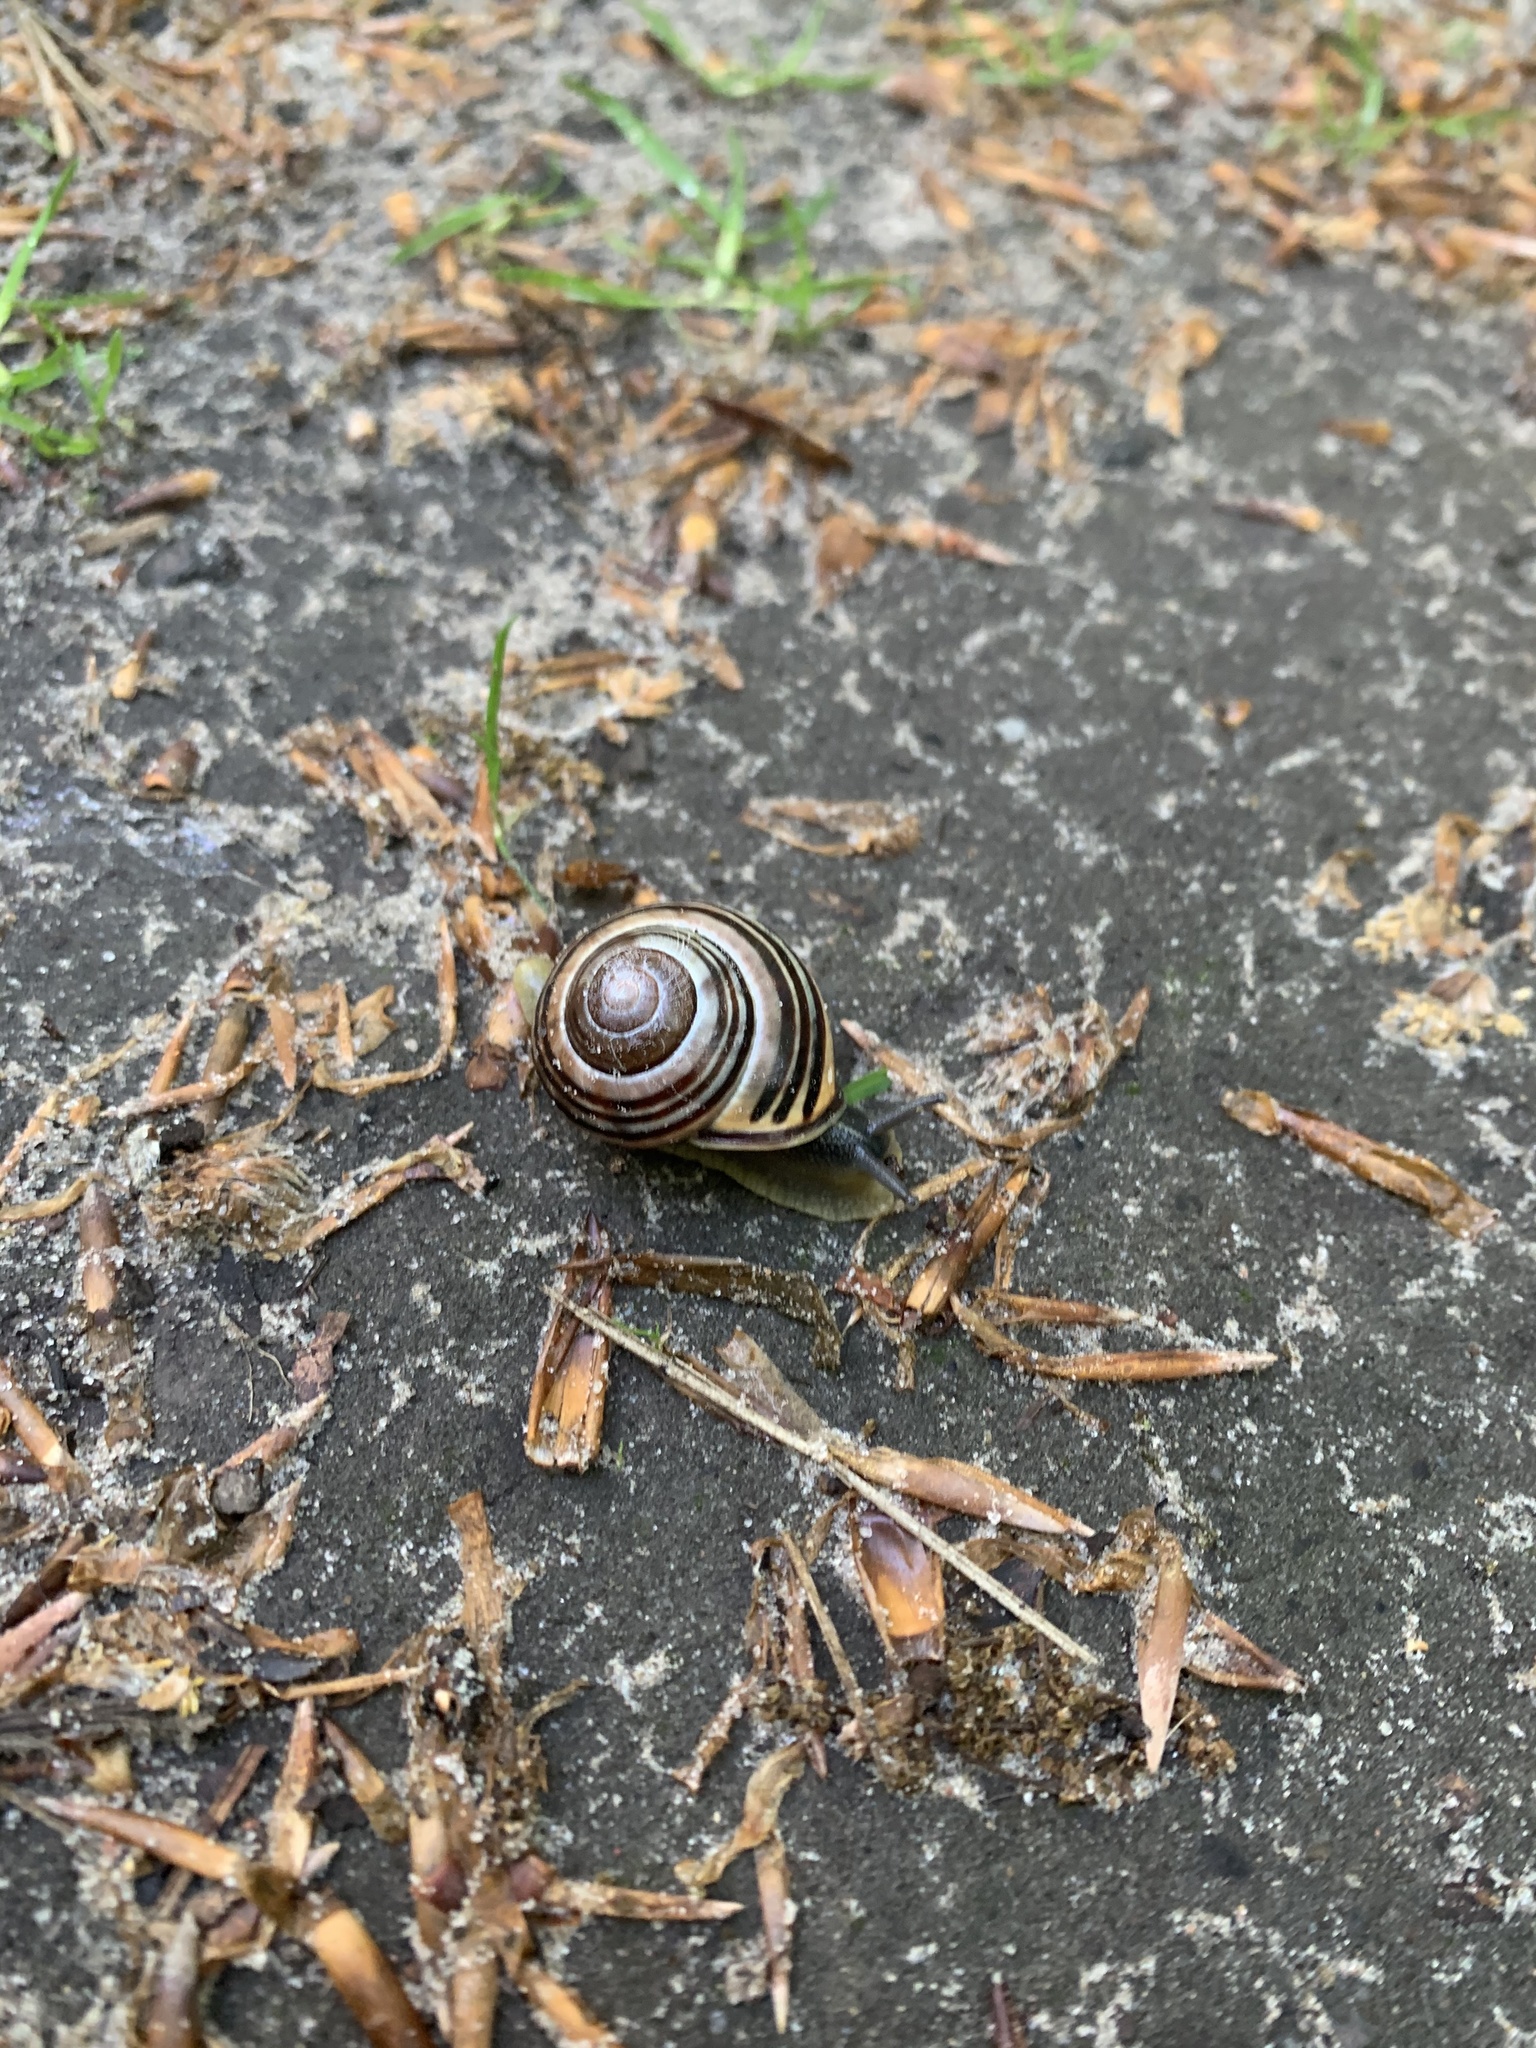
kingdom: Animalia
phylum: Mollusca
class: Gastropoda
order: Stylommatophora
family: Helicidae
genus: Cepaea
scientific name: Cepaea nemoralis
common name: Grovesnail
